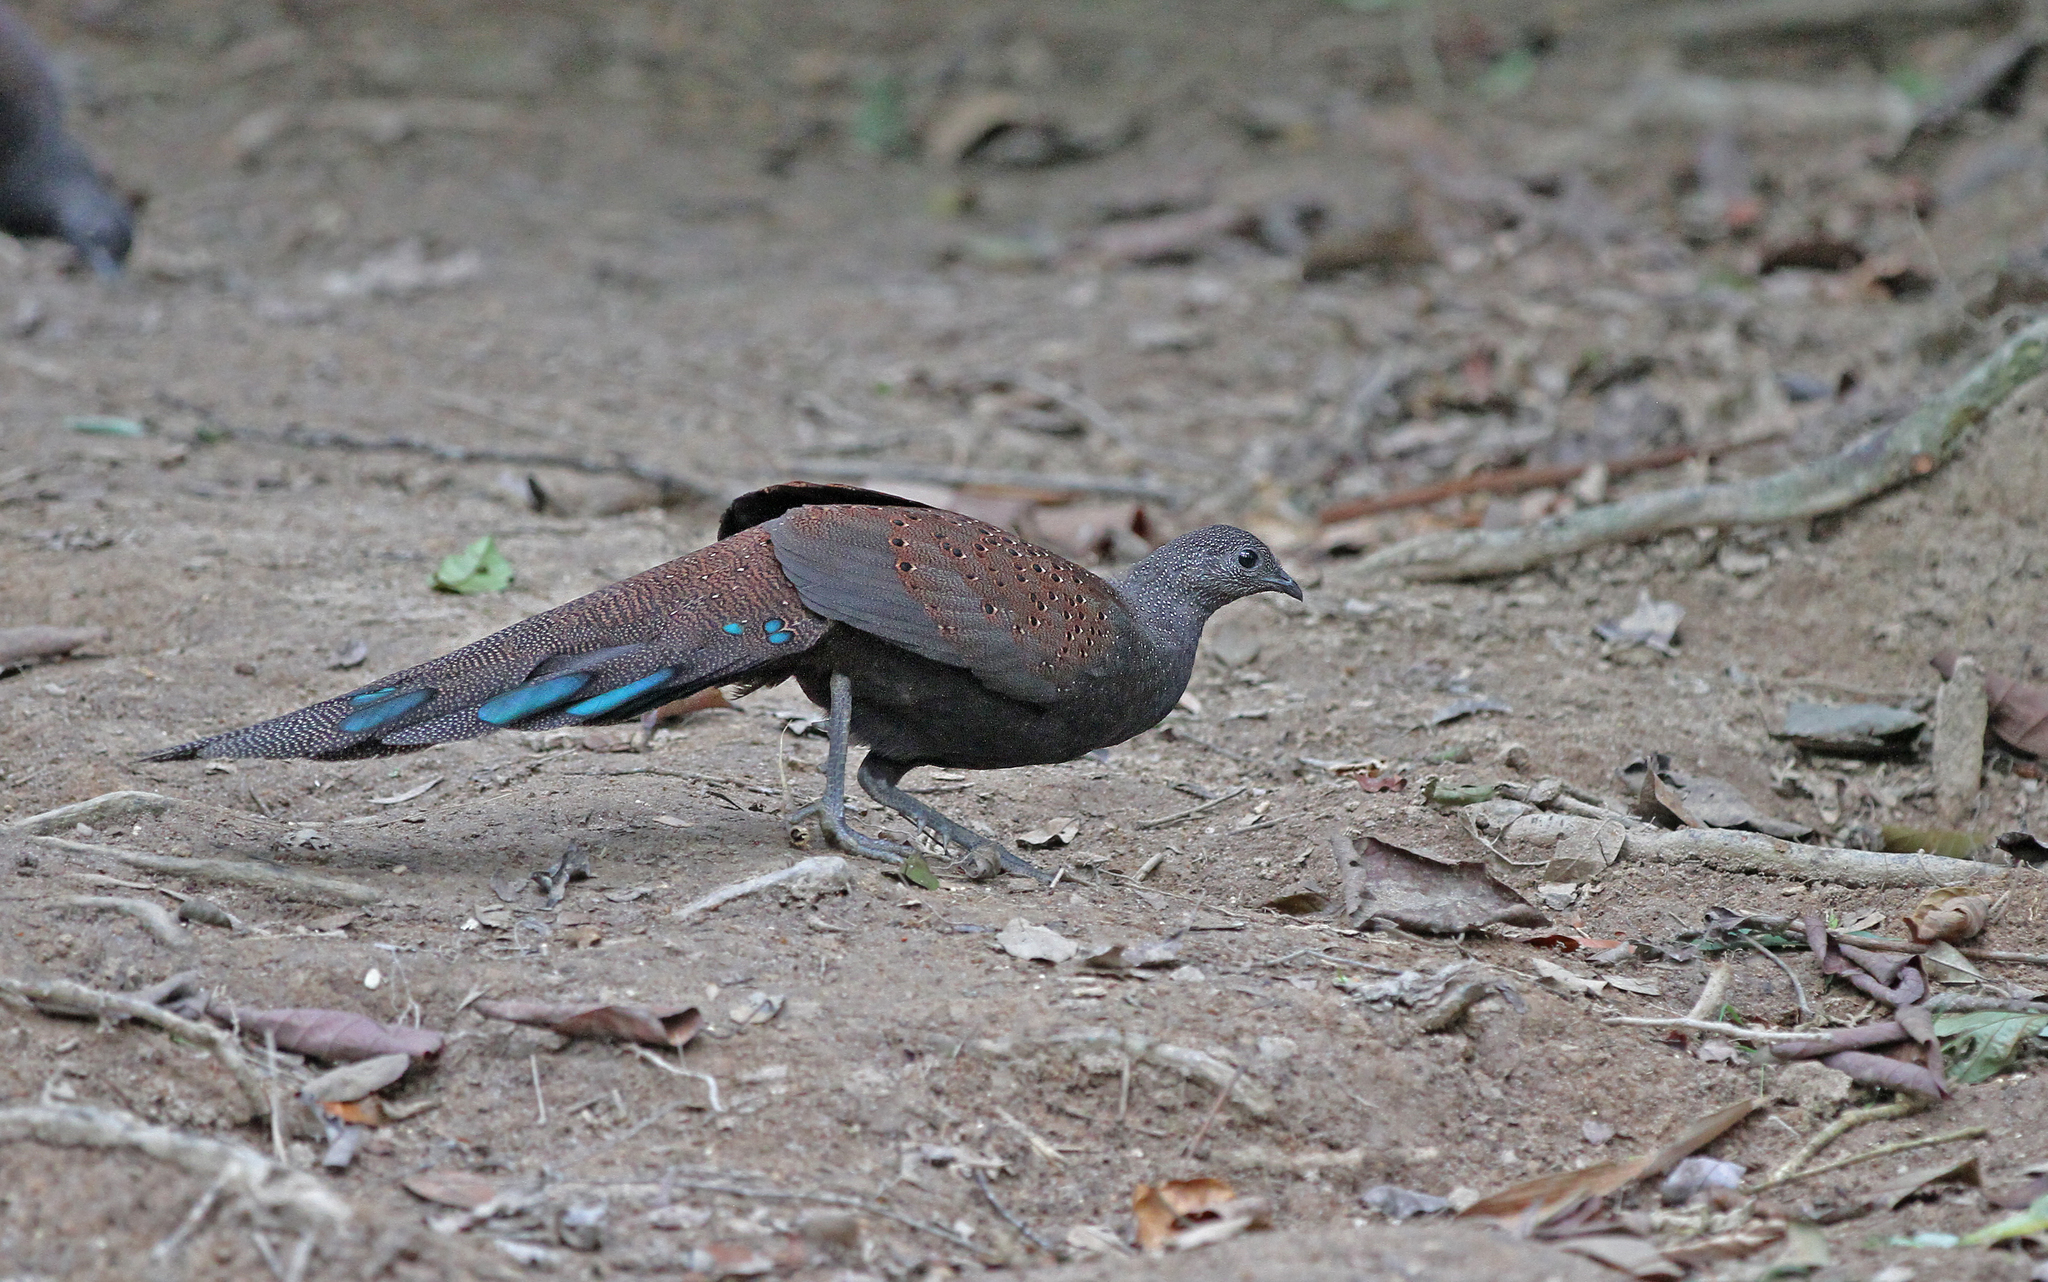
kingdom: Animalia
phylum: Chordata
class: Aves
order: Galliformes
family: Phasianidae
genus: Polyplectron
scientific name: Polyplectron inopinatum
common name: Mountain peacock-pheasant
